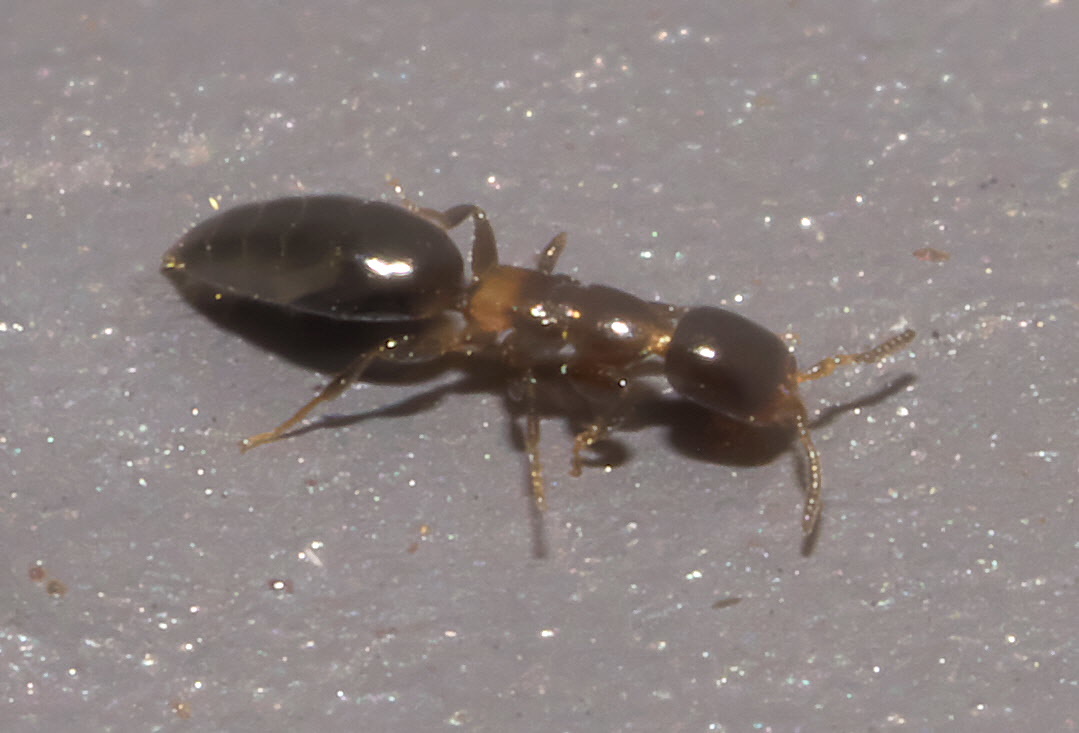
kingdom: Animalia
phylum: Arthropoda
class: Insecta
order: Hymenoptera
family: Bethylidae
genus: Sclerodermus
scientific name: Sclerodermus macrogaster
